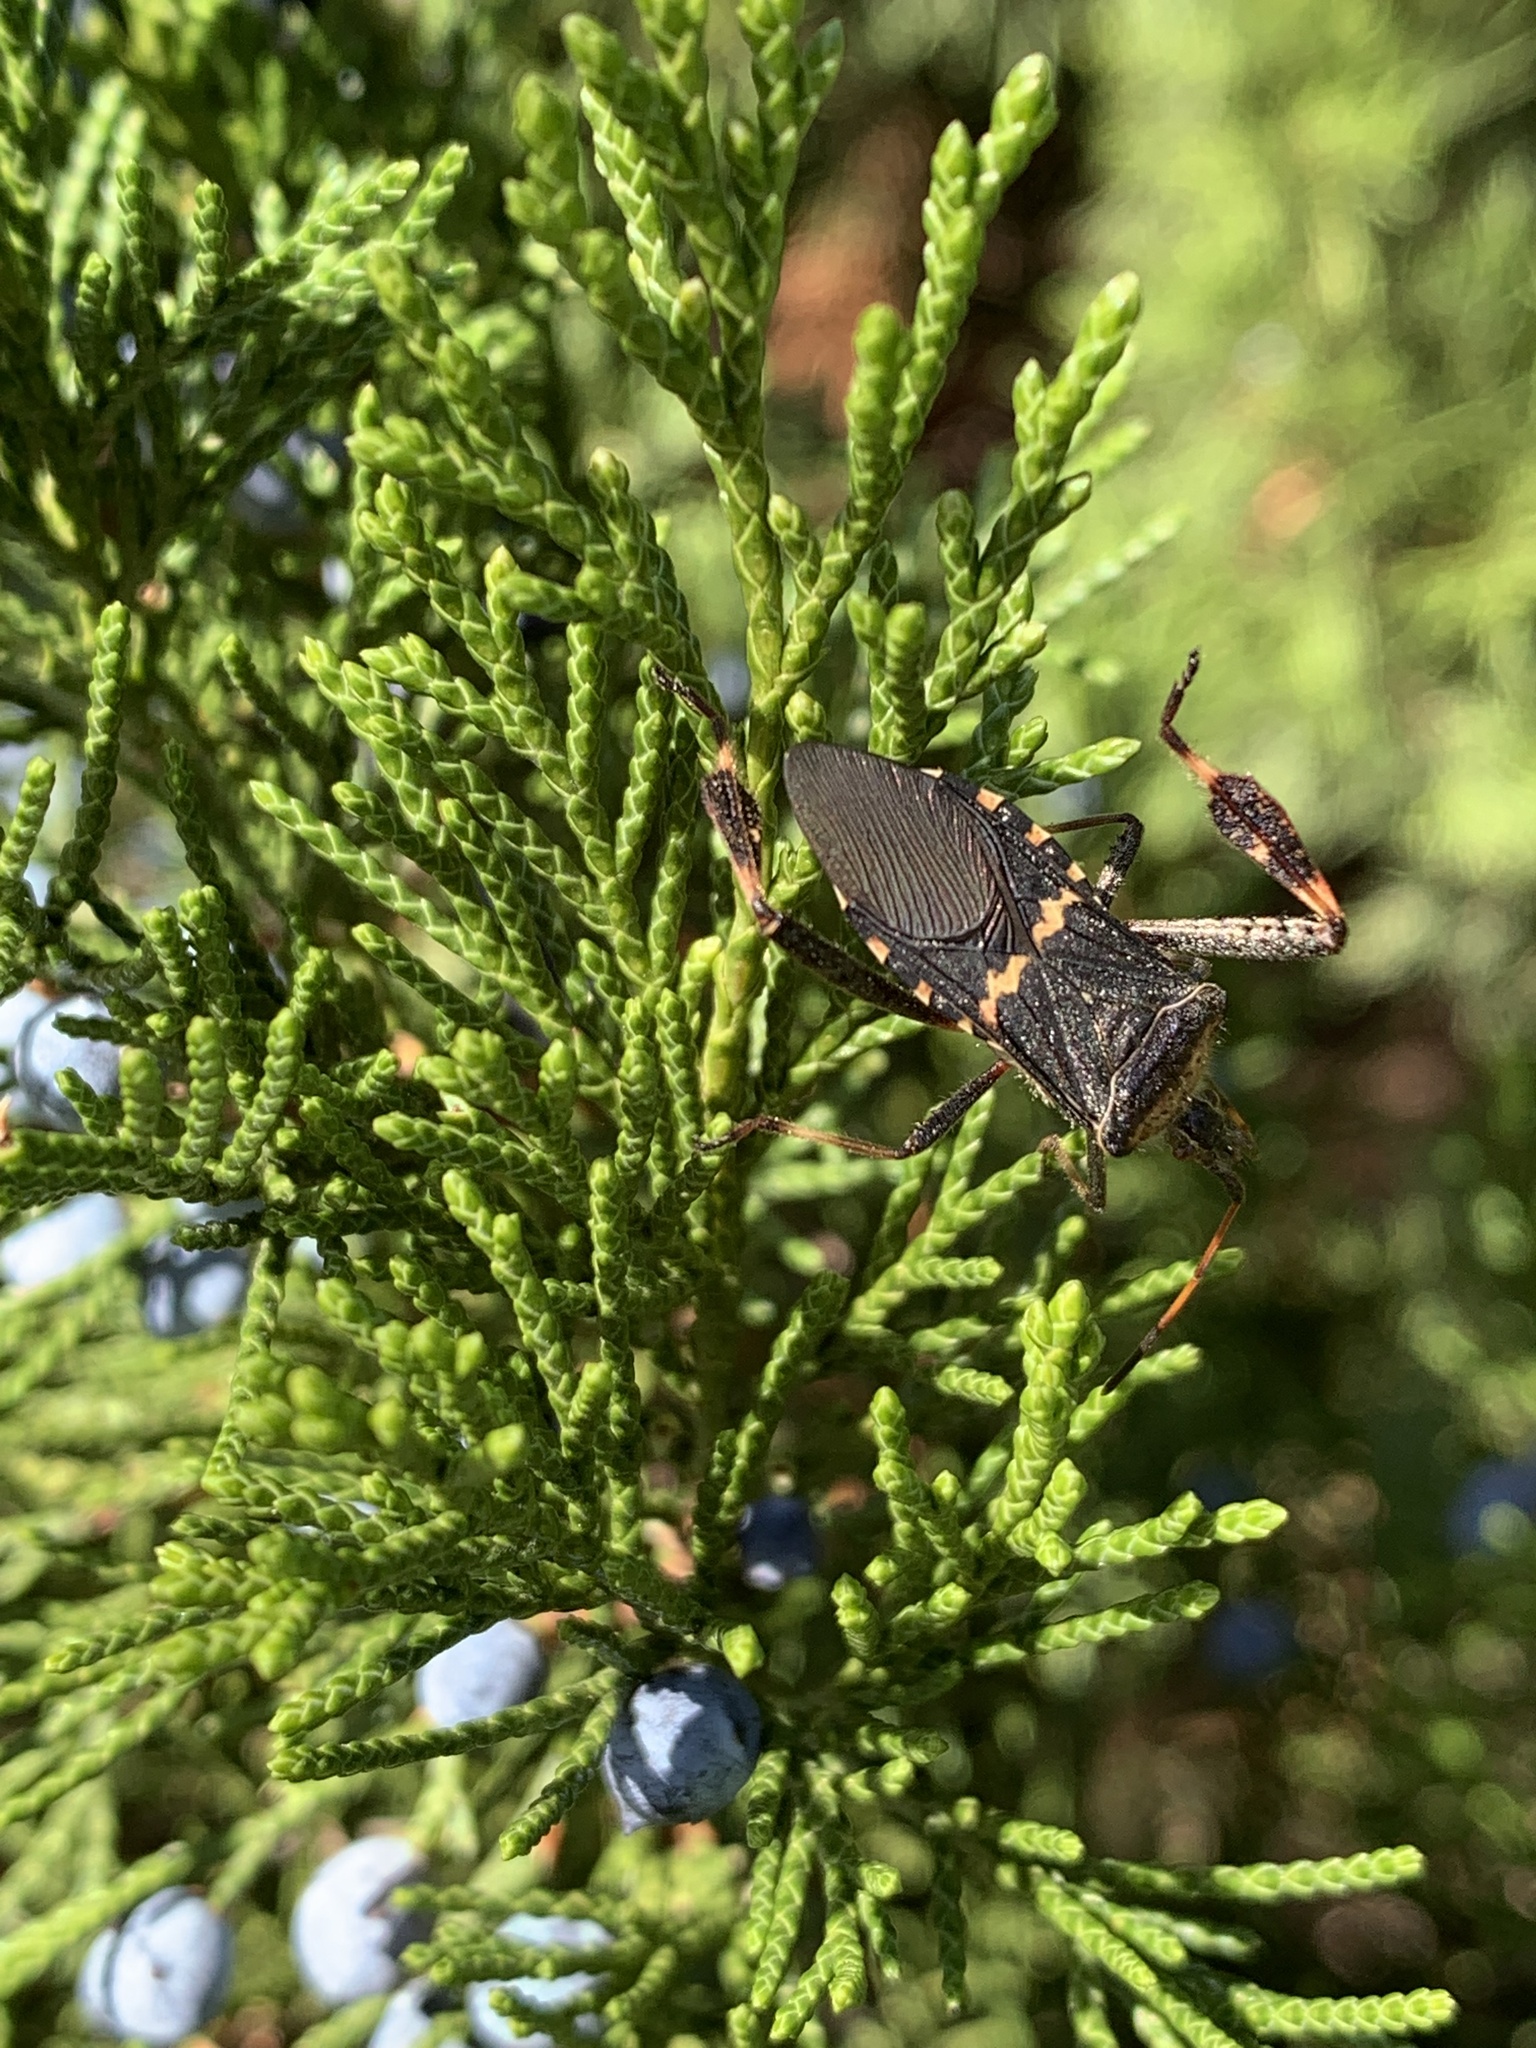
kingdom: Animalia
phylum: Arthropoda
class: Insecta
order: Hemiptera
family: Coreidae
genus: Leptoglossus
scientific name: Leptoglossus clypealis
